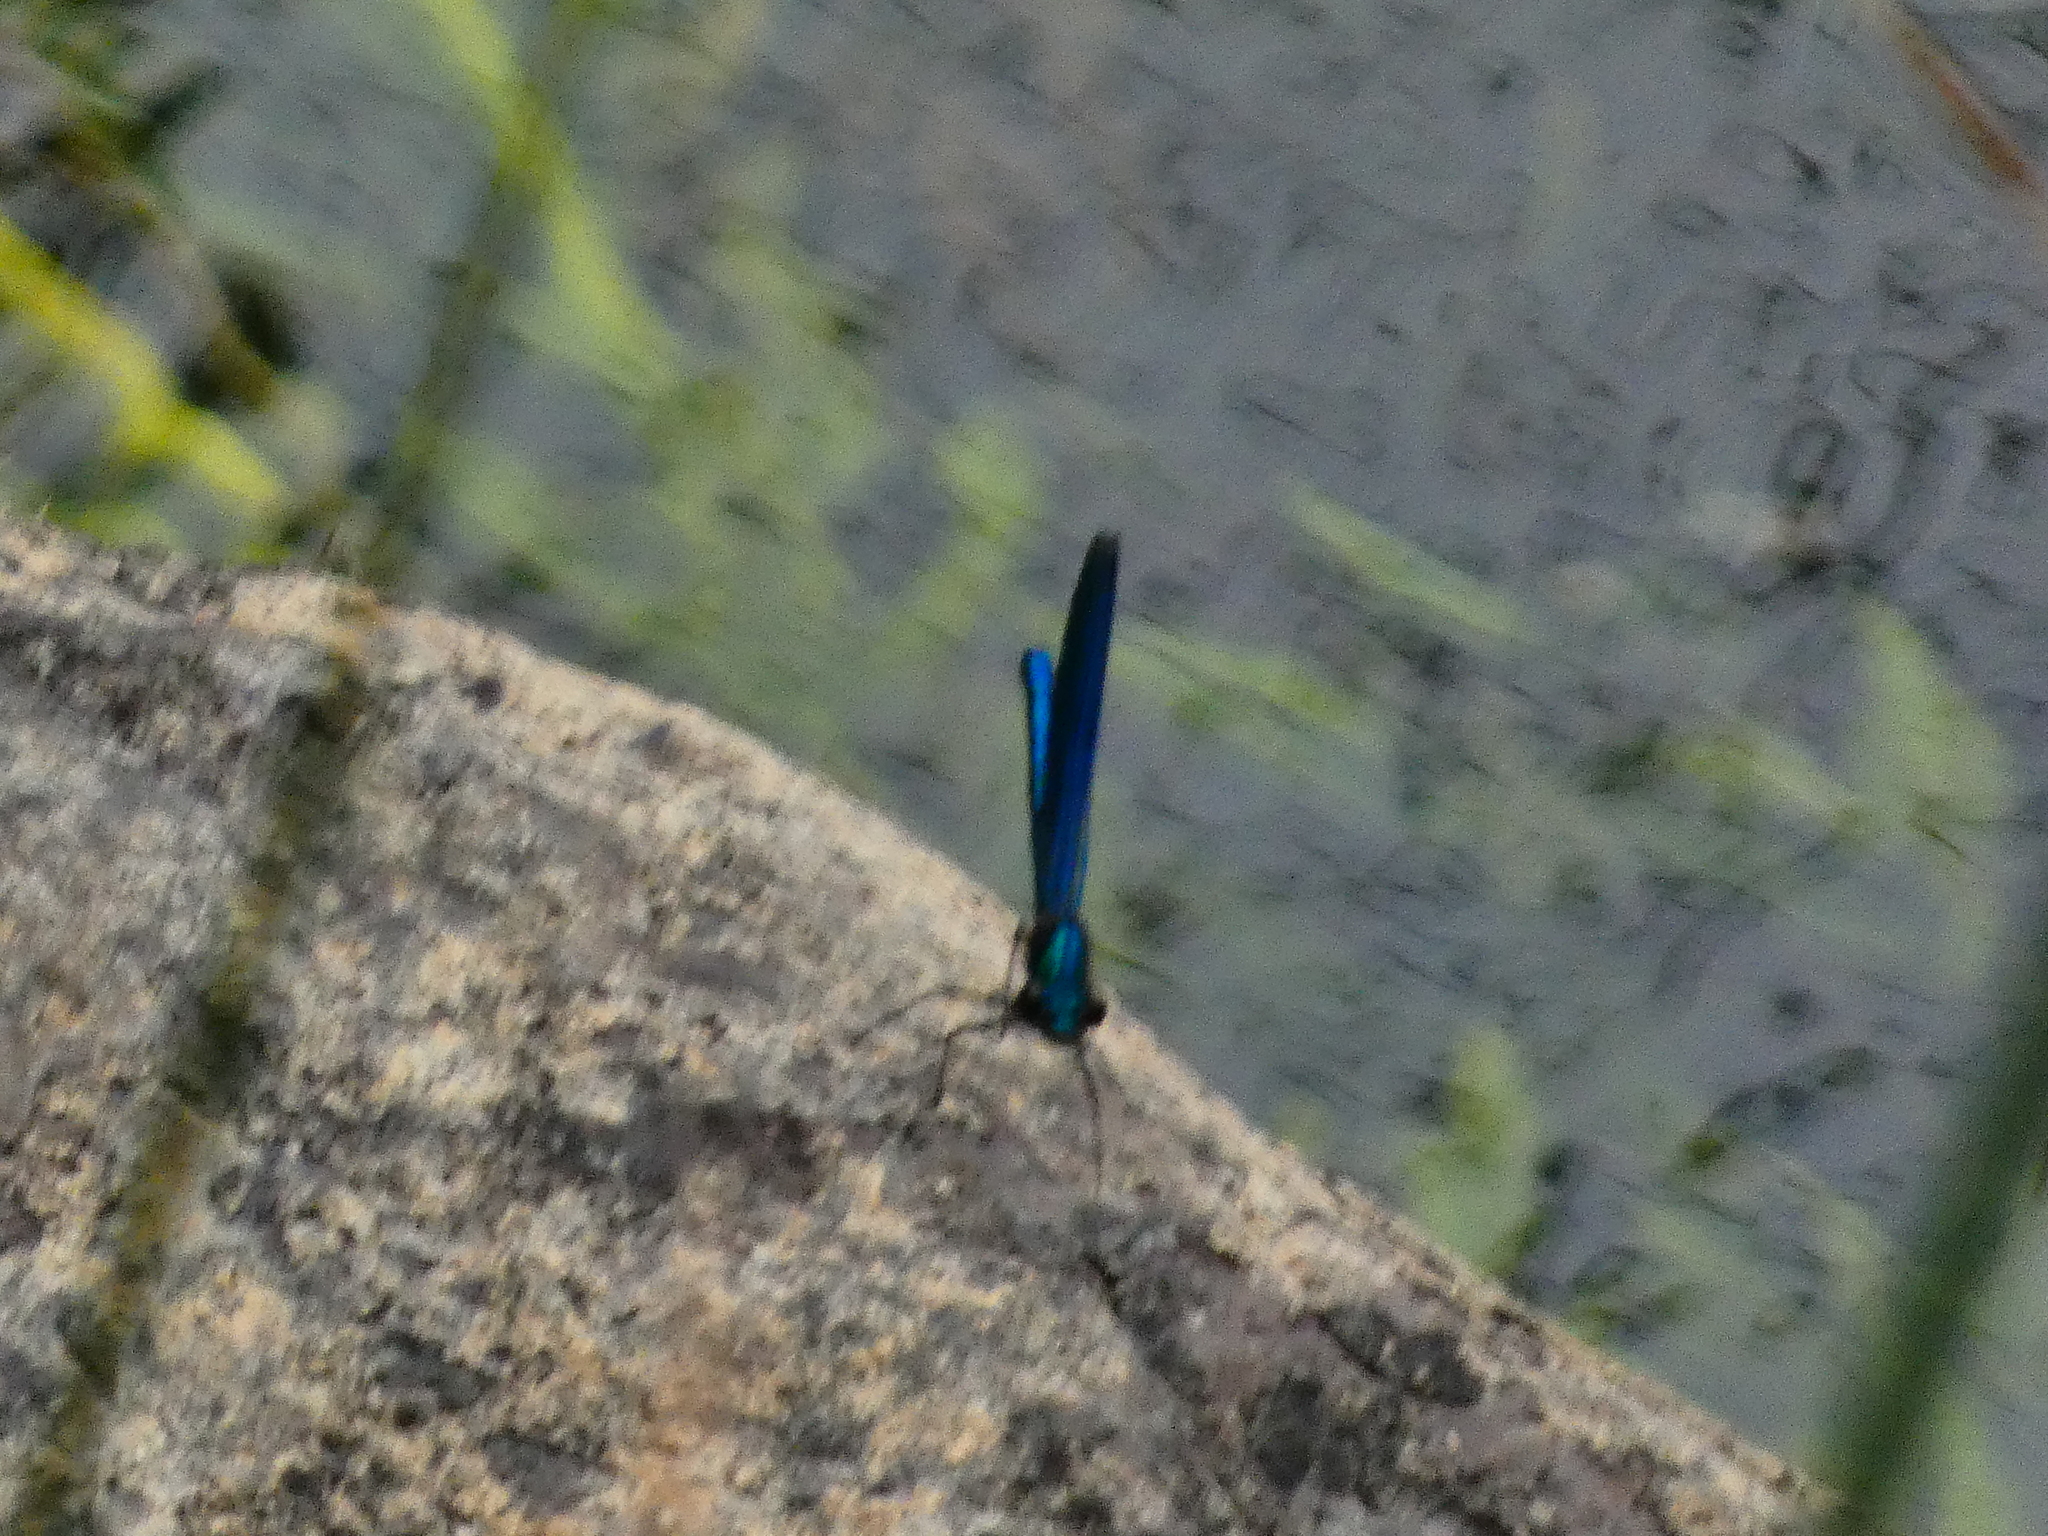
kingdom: Animalia
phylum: Arthropoda
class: Insecta
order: Odonata
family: Calopterygidae
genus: Calopteryx
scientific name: Calopteryx virgo
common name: Beautiful demoiselle
